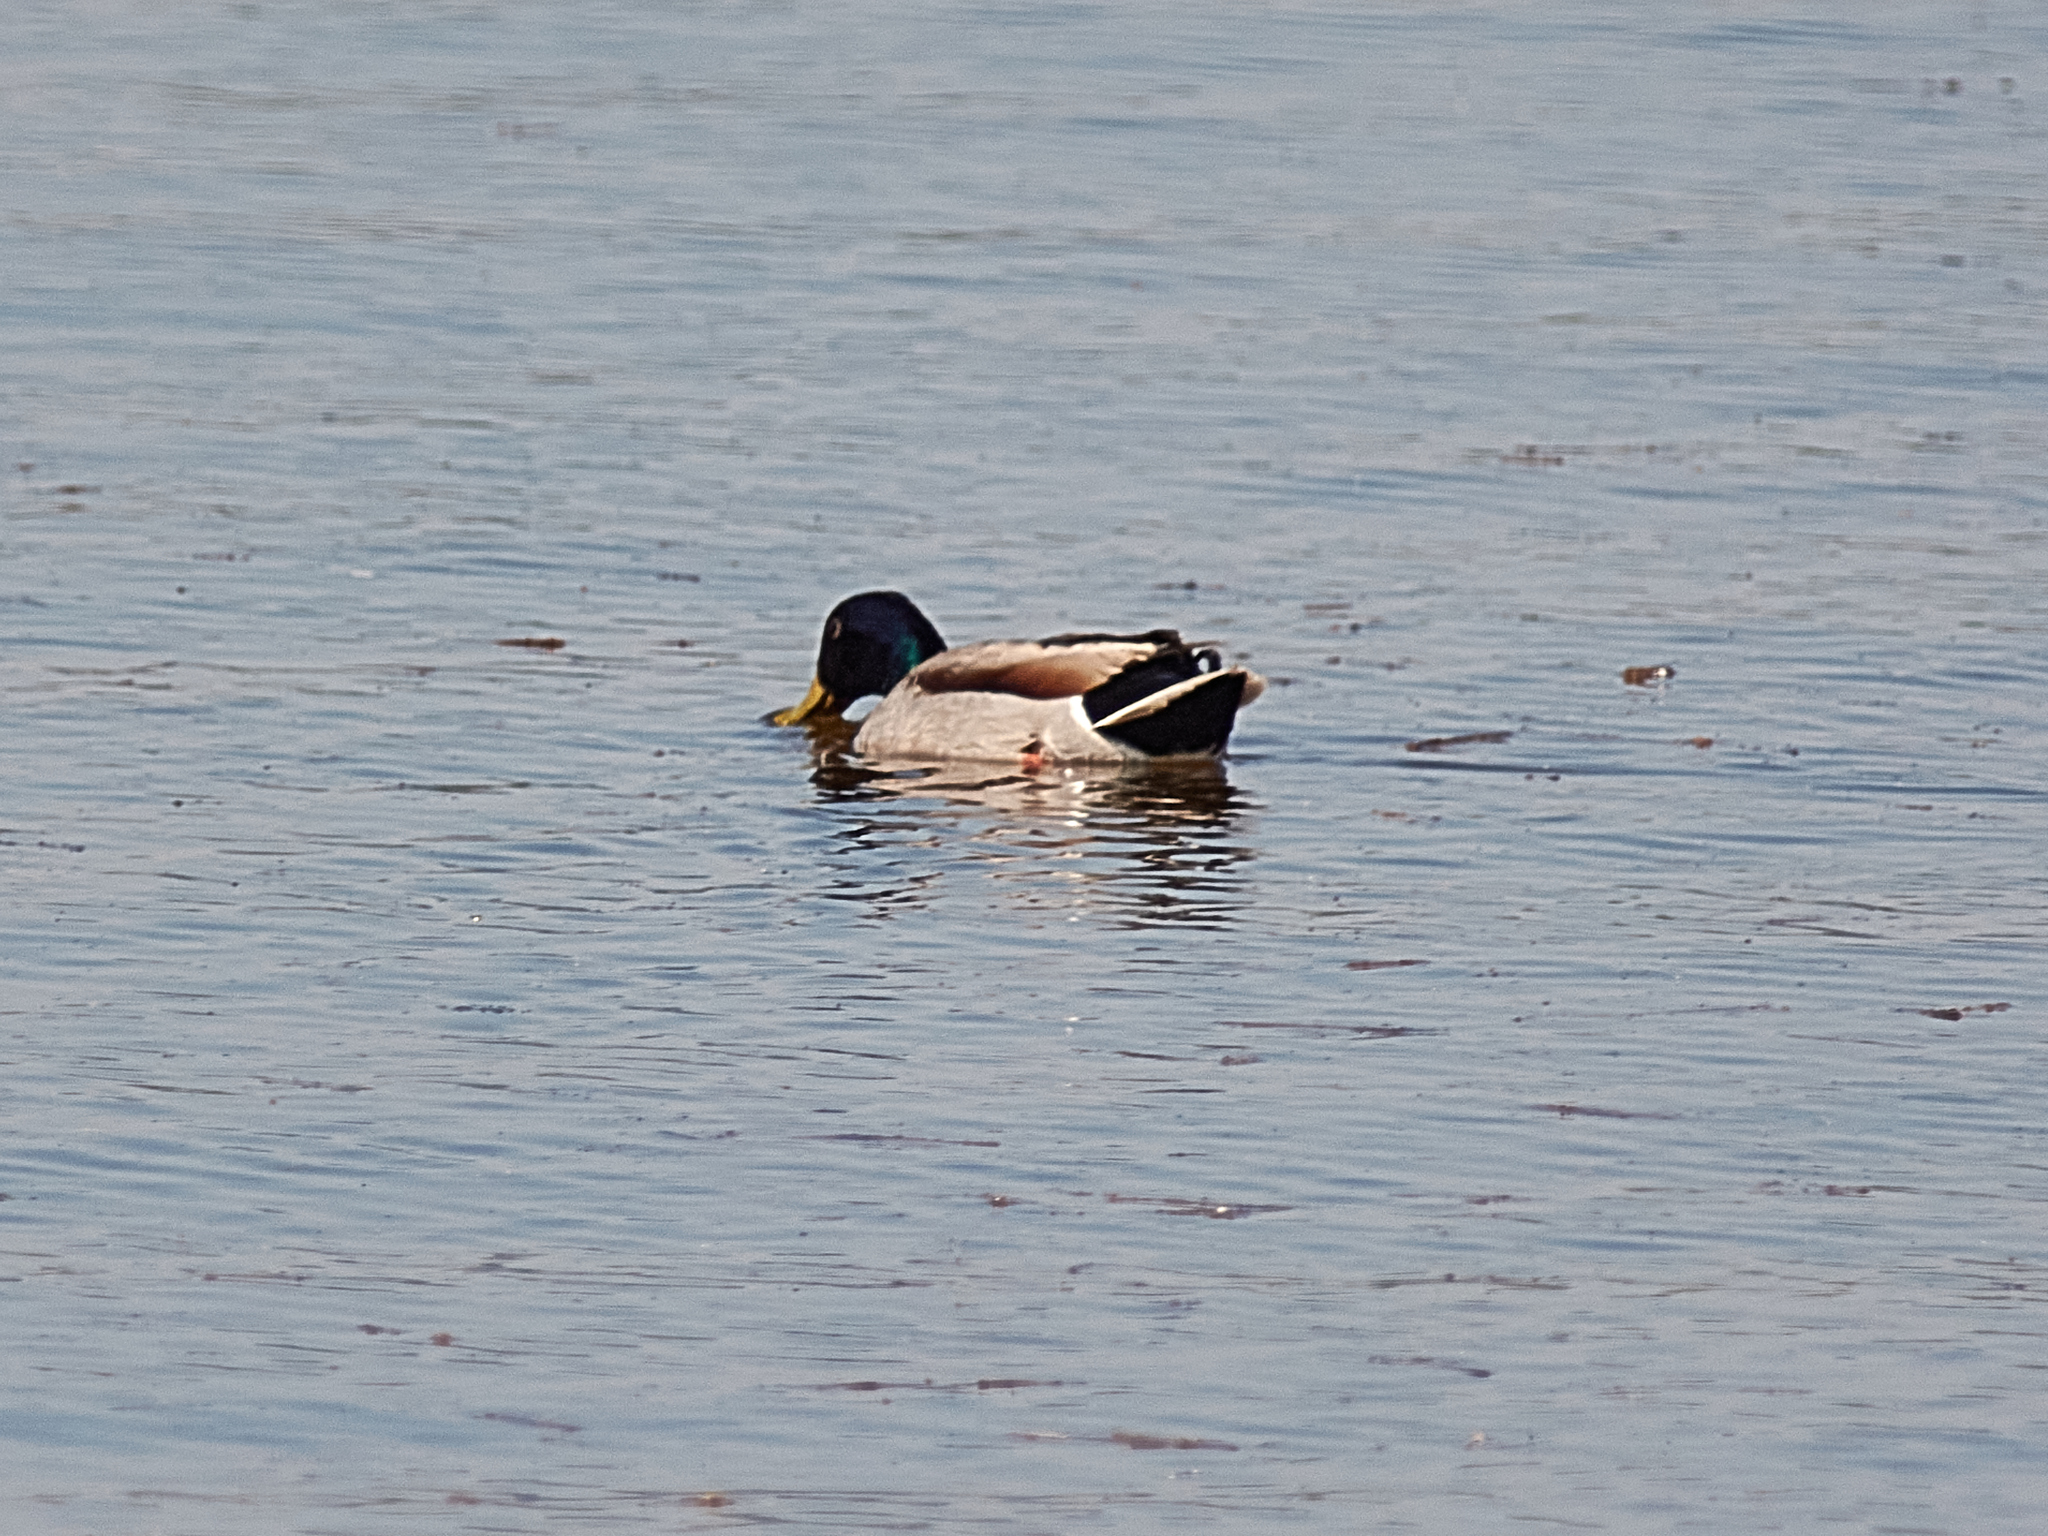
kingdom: Animalia
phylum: Chordata
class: Aves
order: Anseriformes
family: Anatidae
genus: Anas
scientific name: Anas platyrhynchos
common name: Mallard
